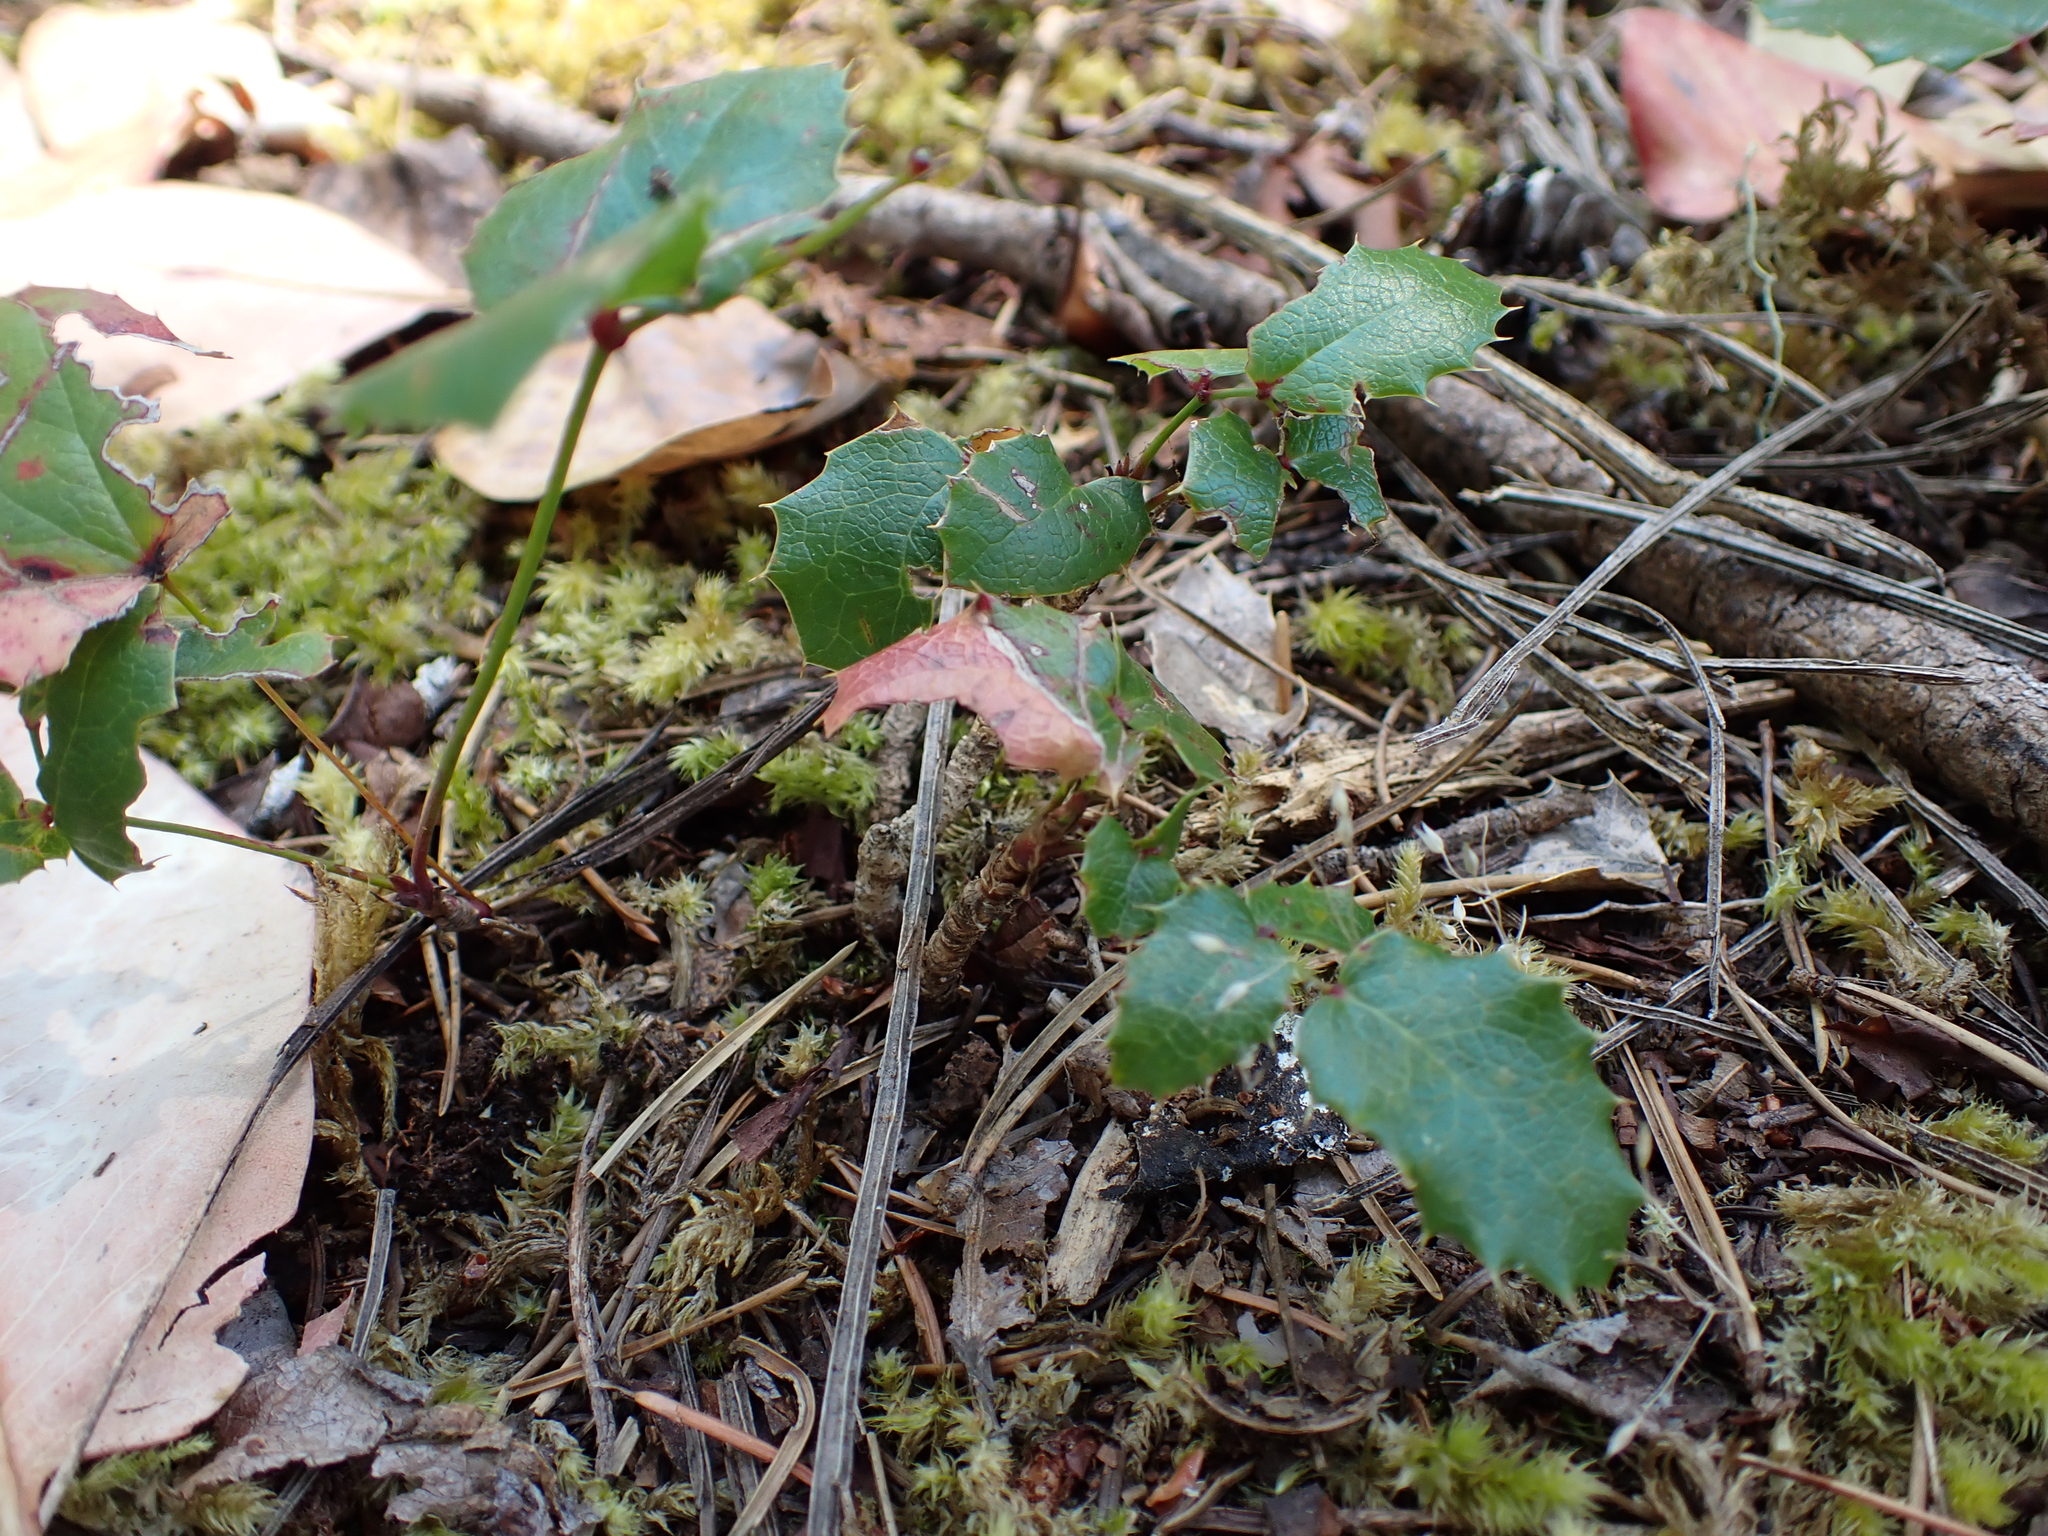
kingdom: Plantae
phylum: Tracheophyta
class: Magnoliopsida
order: Ranunculales
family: Berberidaceae
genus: Mahonia
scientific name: Mahonia aquifolium
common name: Oregon-grape
